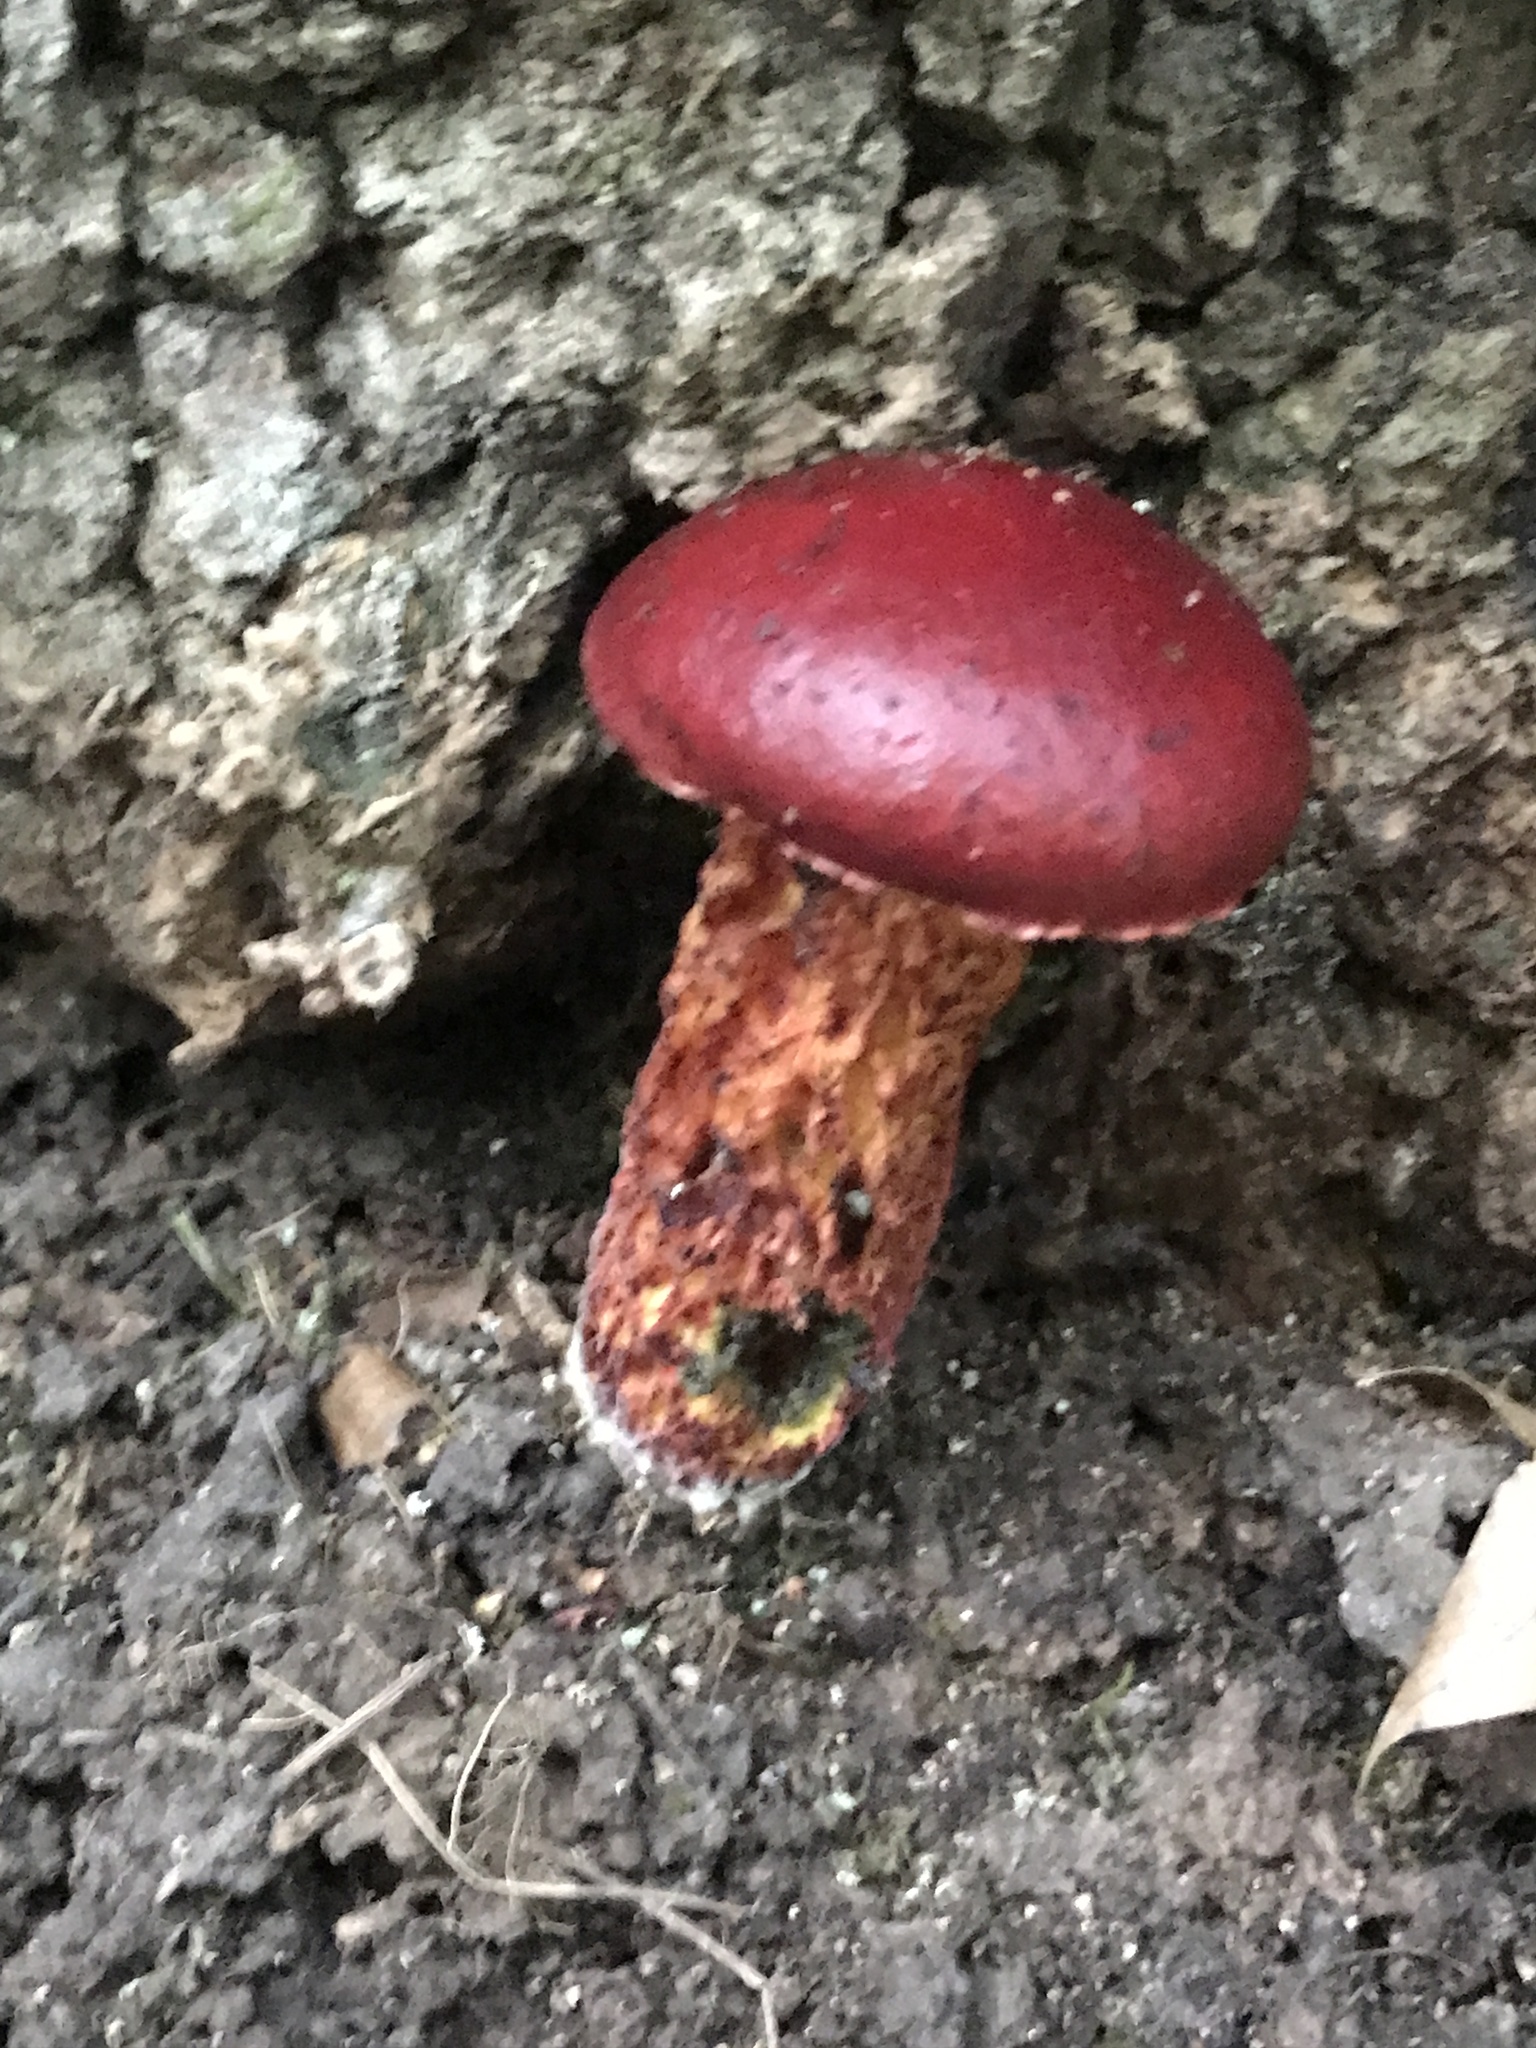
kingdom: Fungi
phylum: Basidiomycota
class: Agaricomycetes
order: Boletales
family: Boletaceae
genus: Butyriboletus
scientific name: Butyriboletus frostii
